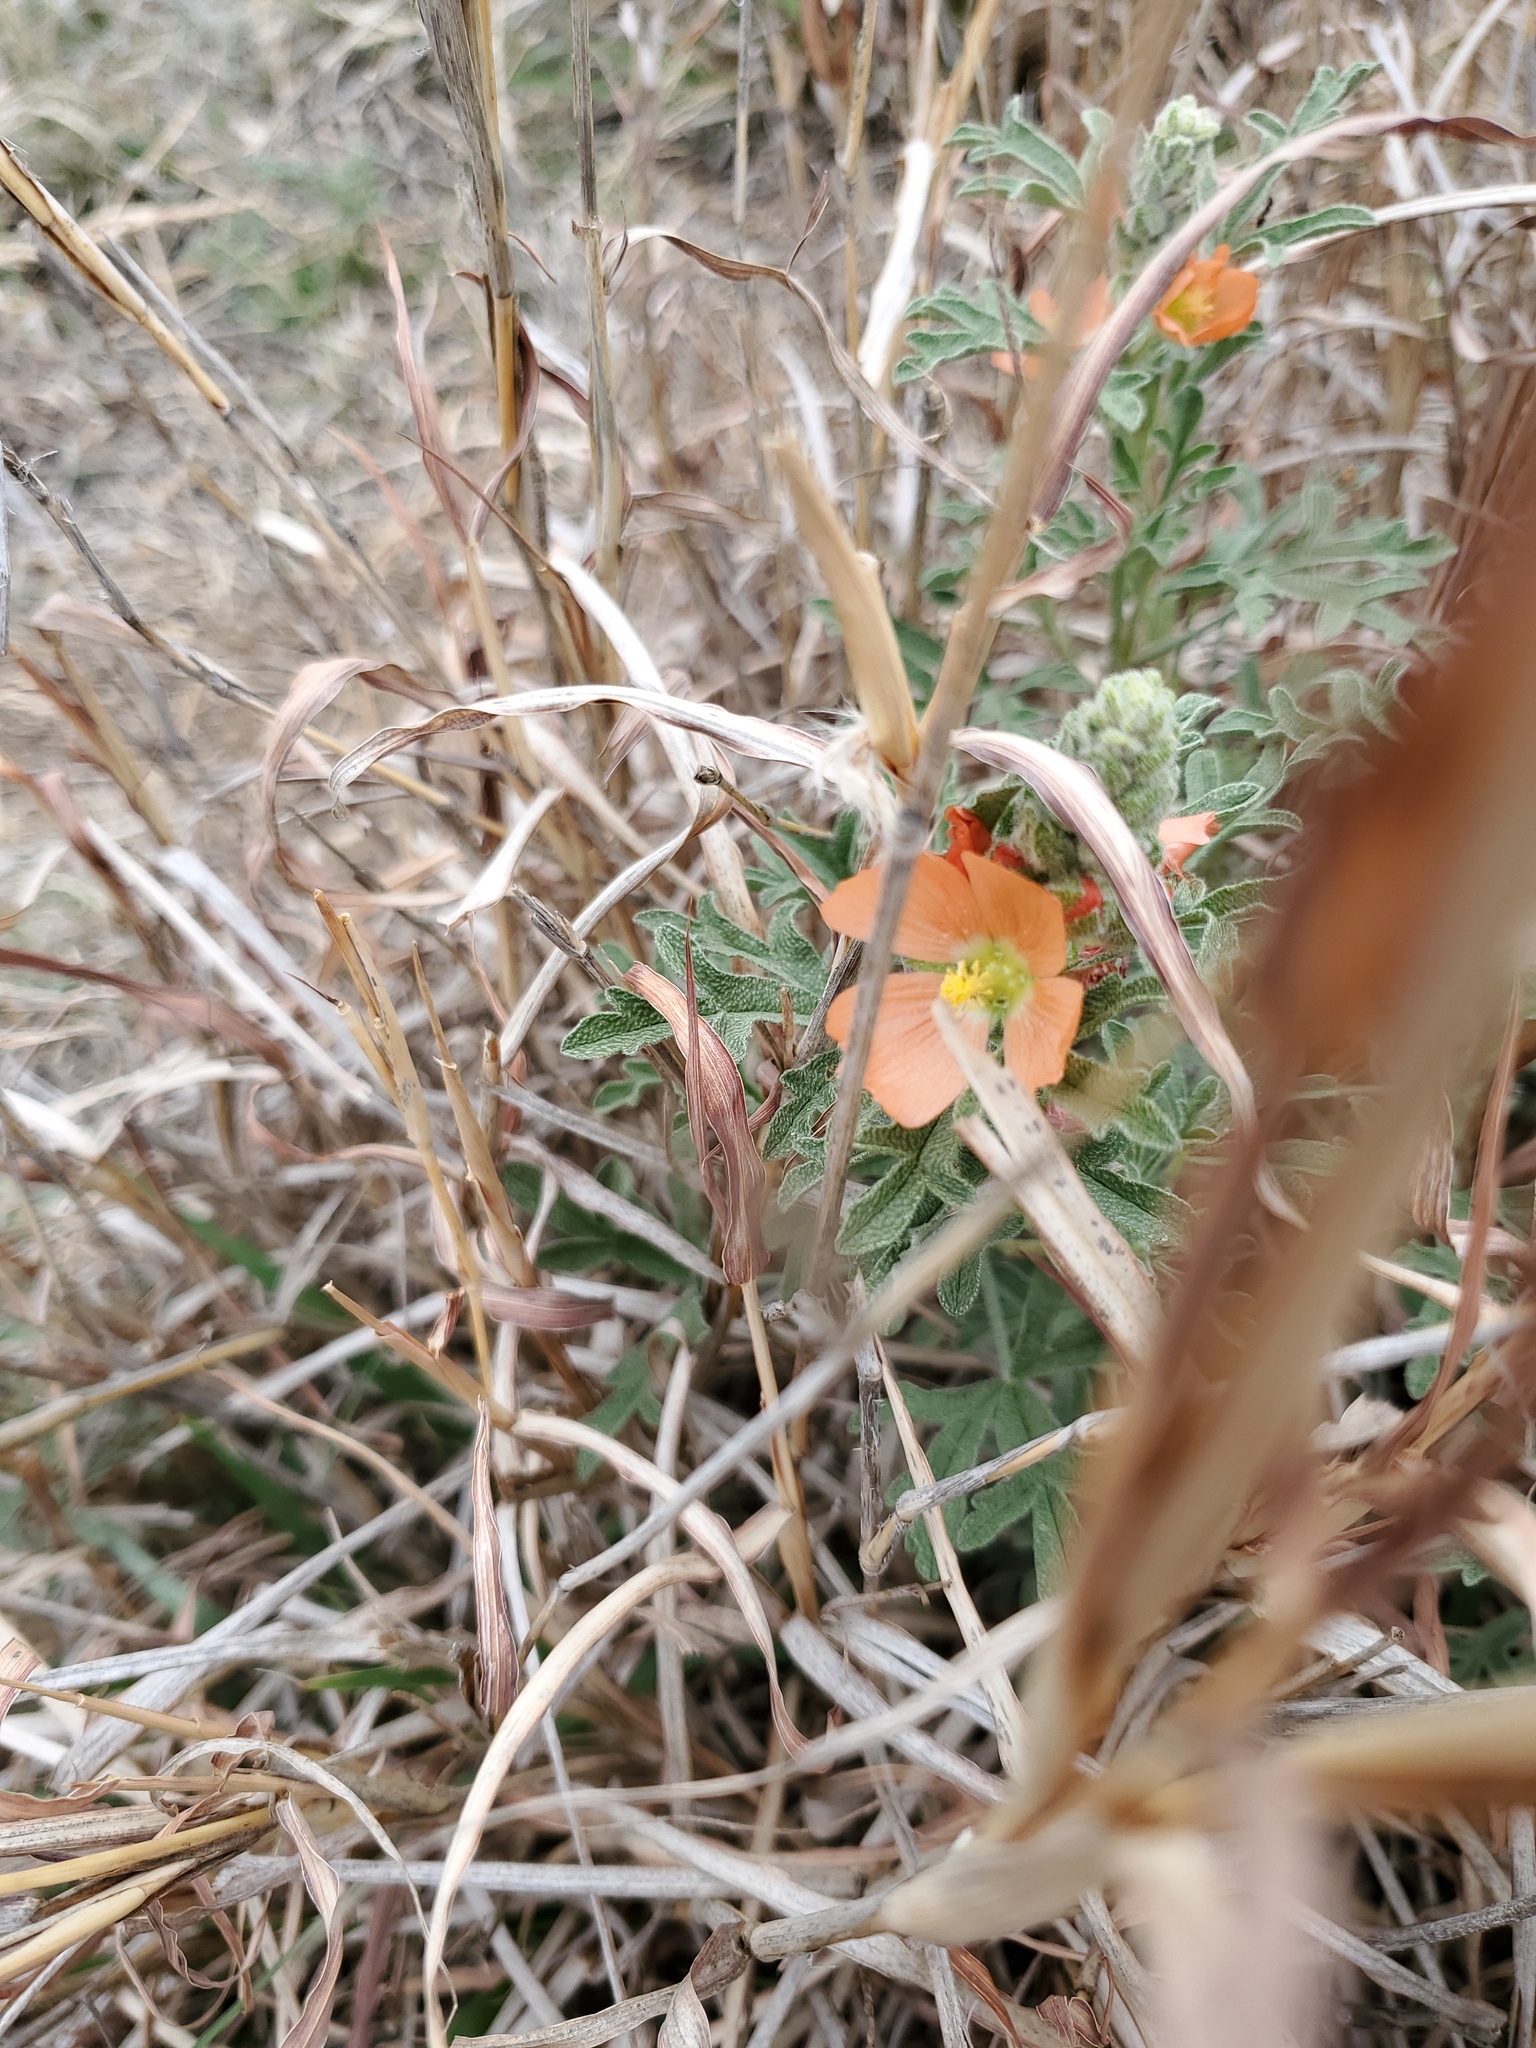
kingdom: Plantae
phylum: Tracheophyta
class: Magnoliopsida
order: Malvales
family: Malvaceae
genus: Sphaeralcea
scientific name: Sphaeralcea coccinea
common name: Moss-rose
